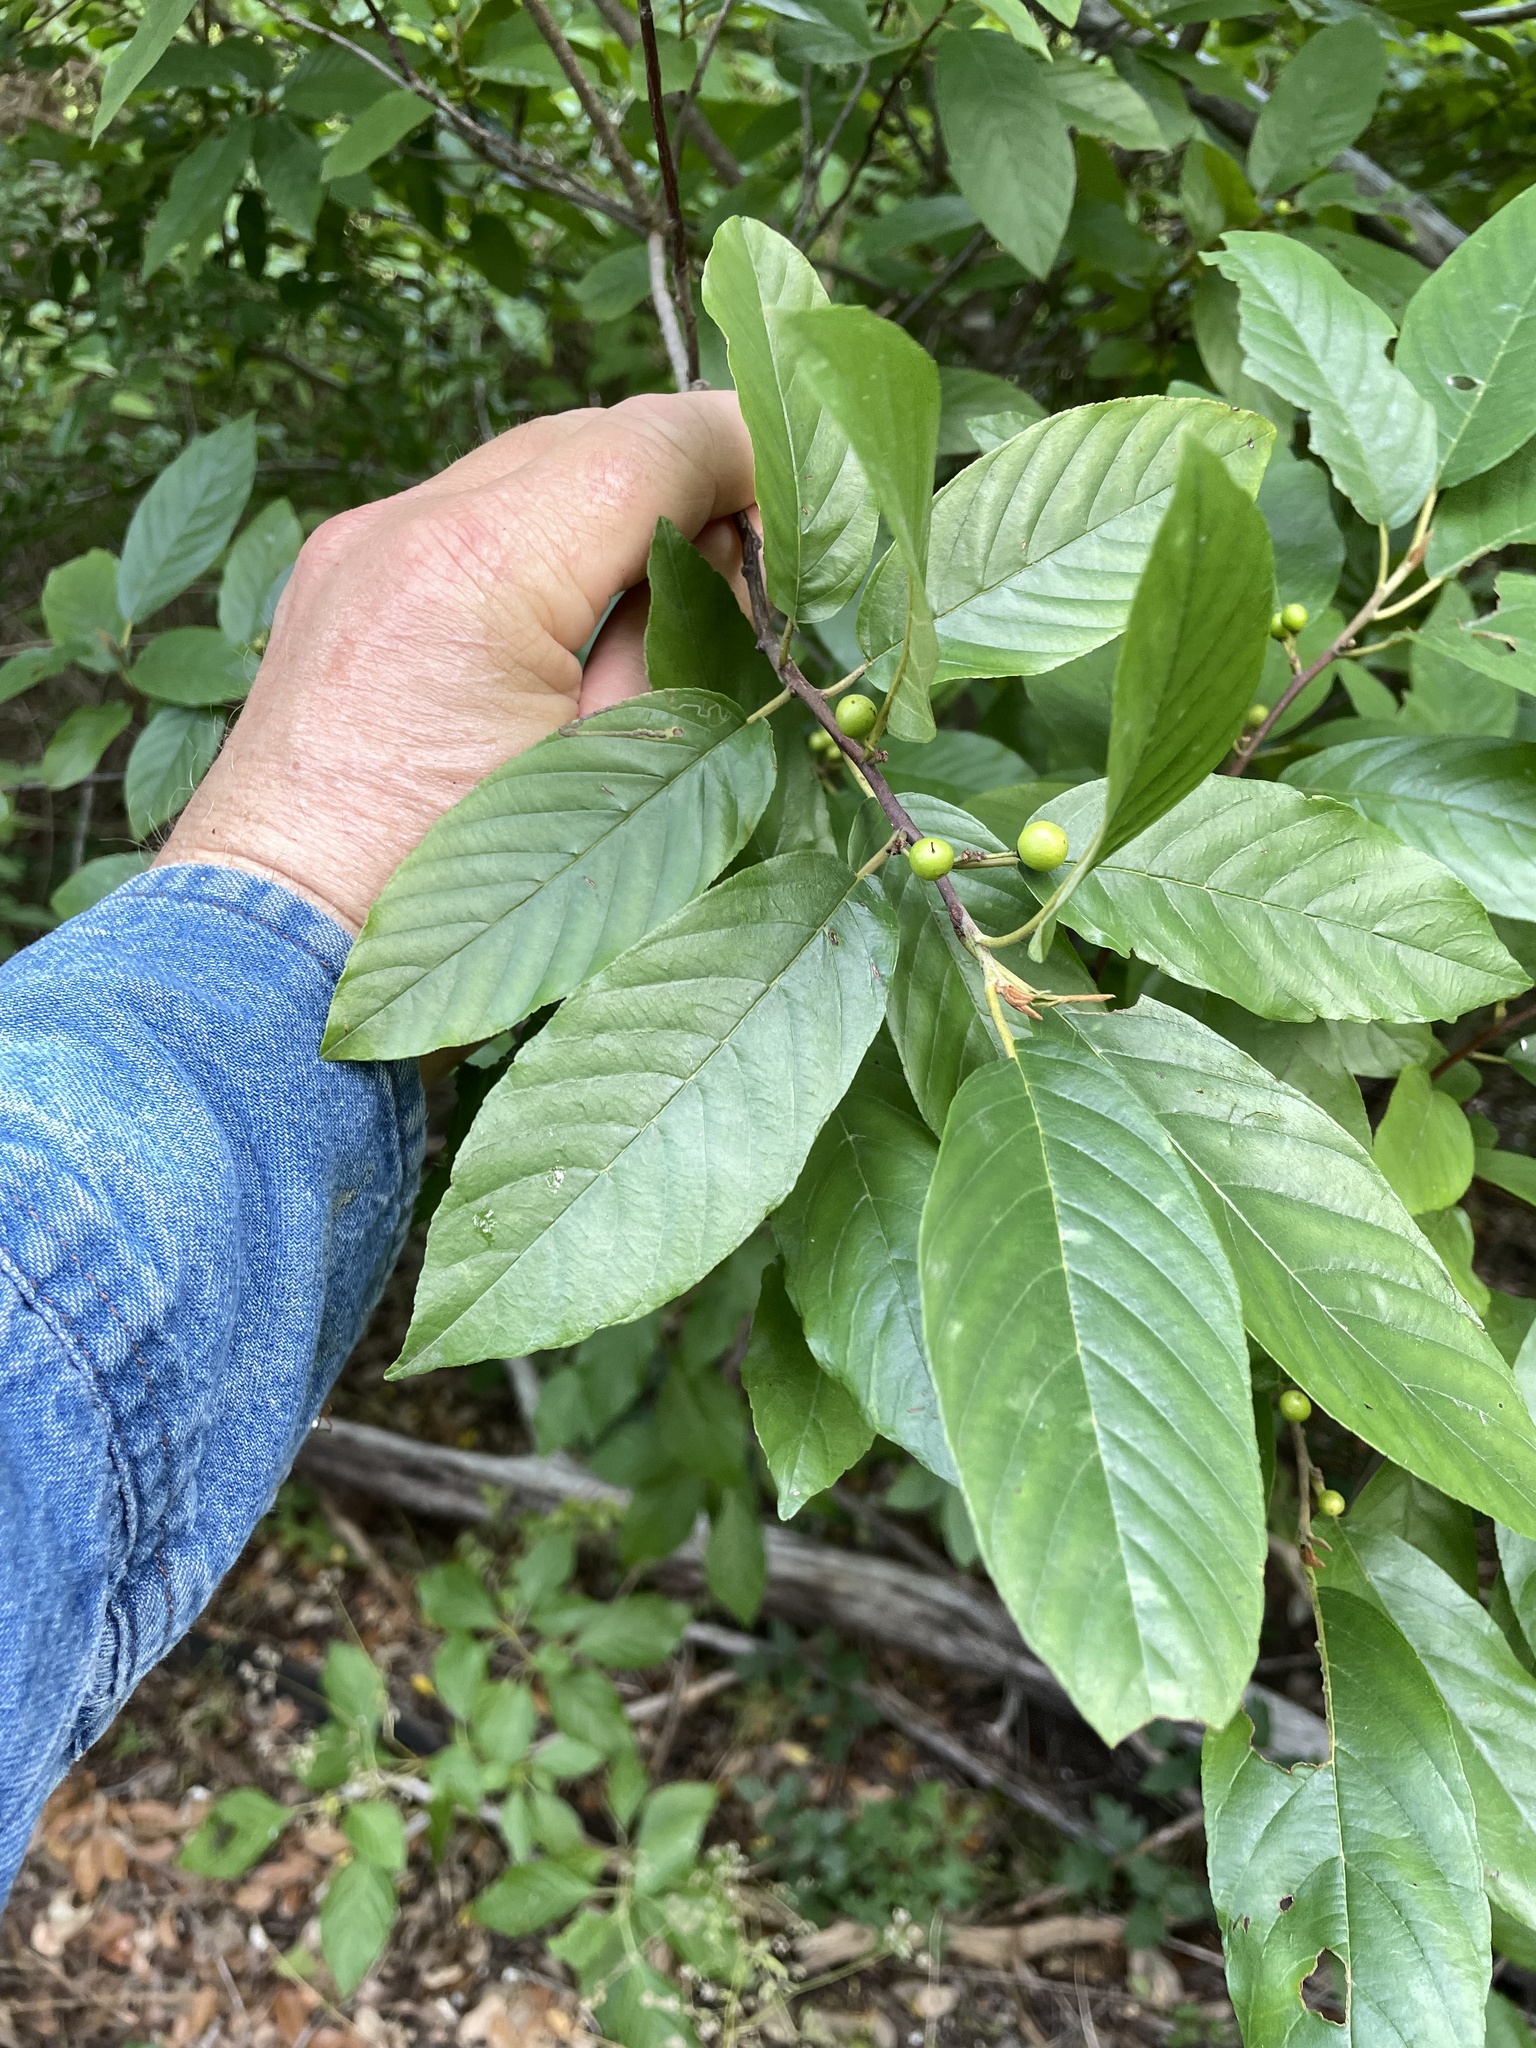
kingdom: Plantae
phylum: Tracheophyta
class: Magnoliopsida
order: Rosales
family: Rhamnaceae
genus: Frangula
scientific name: Frangula caroliniana
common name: Carolina buckthorn
